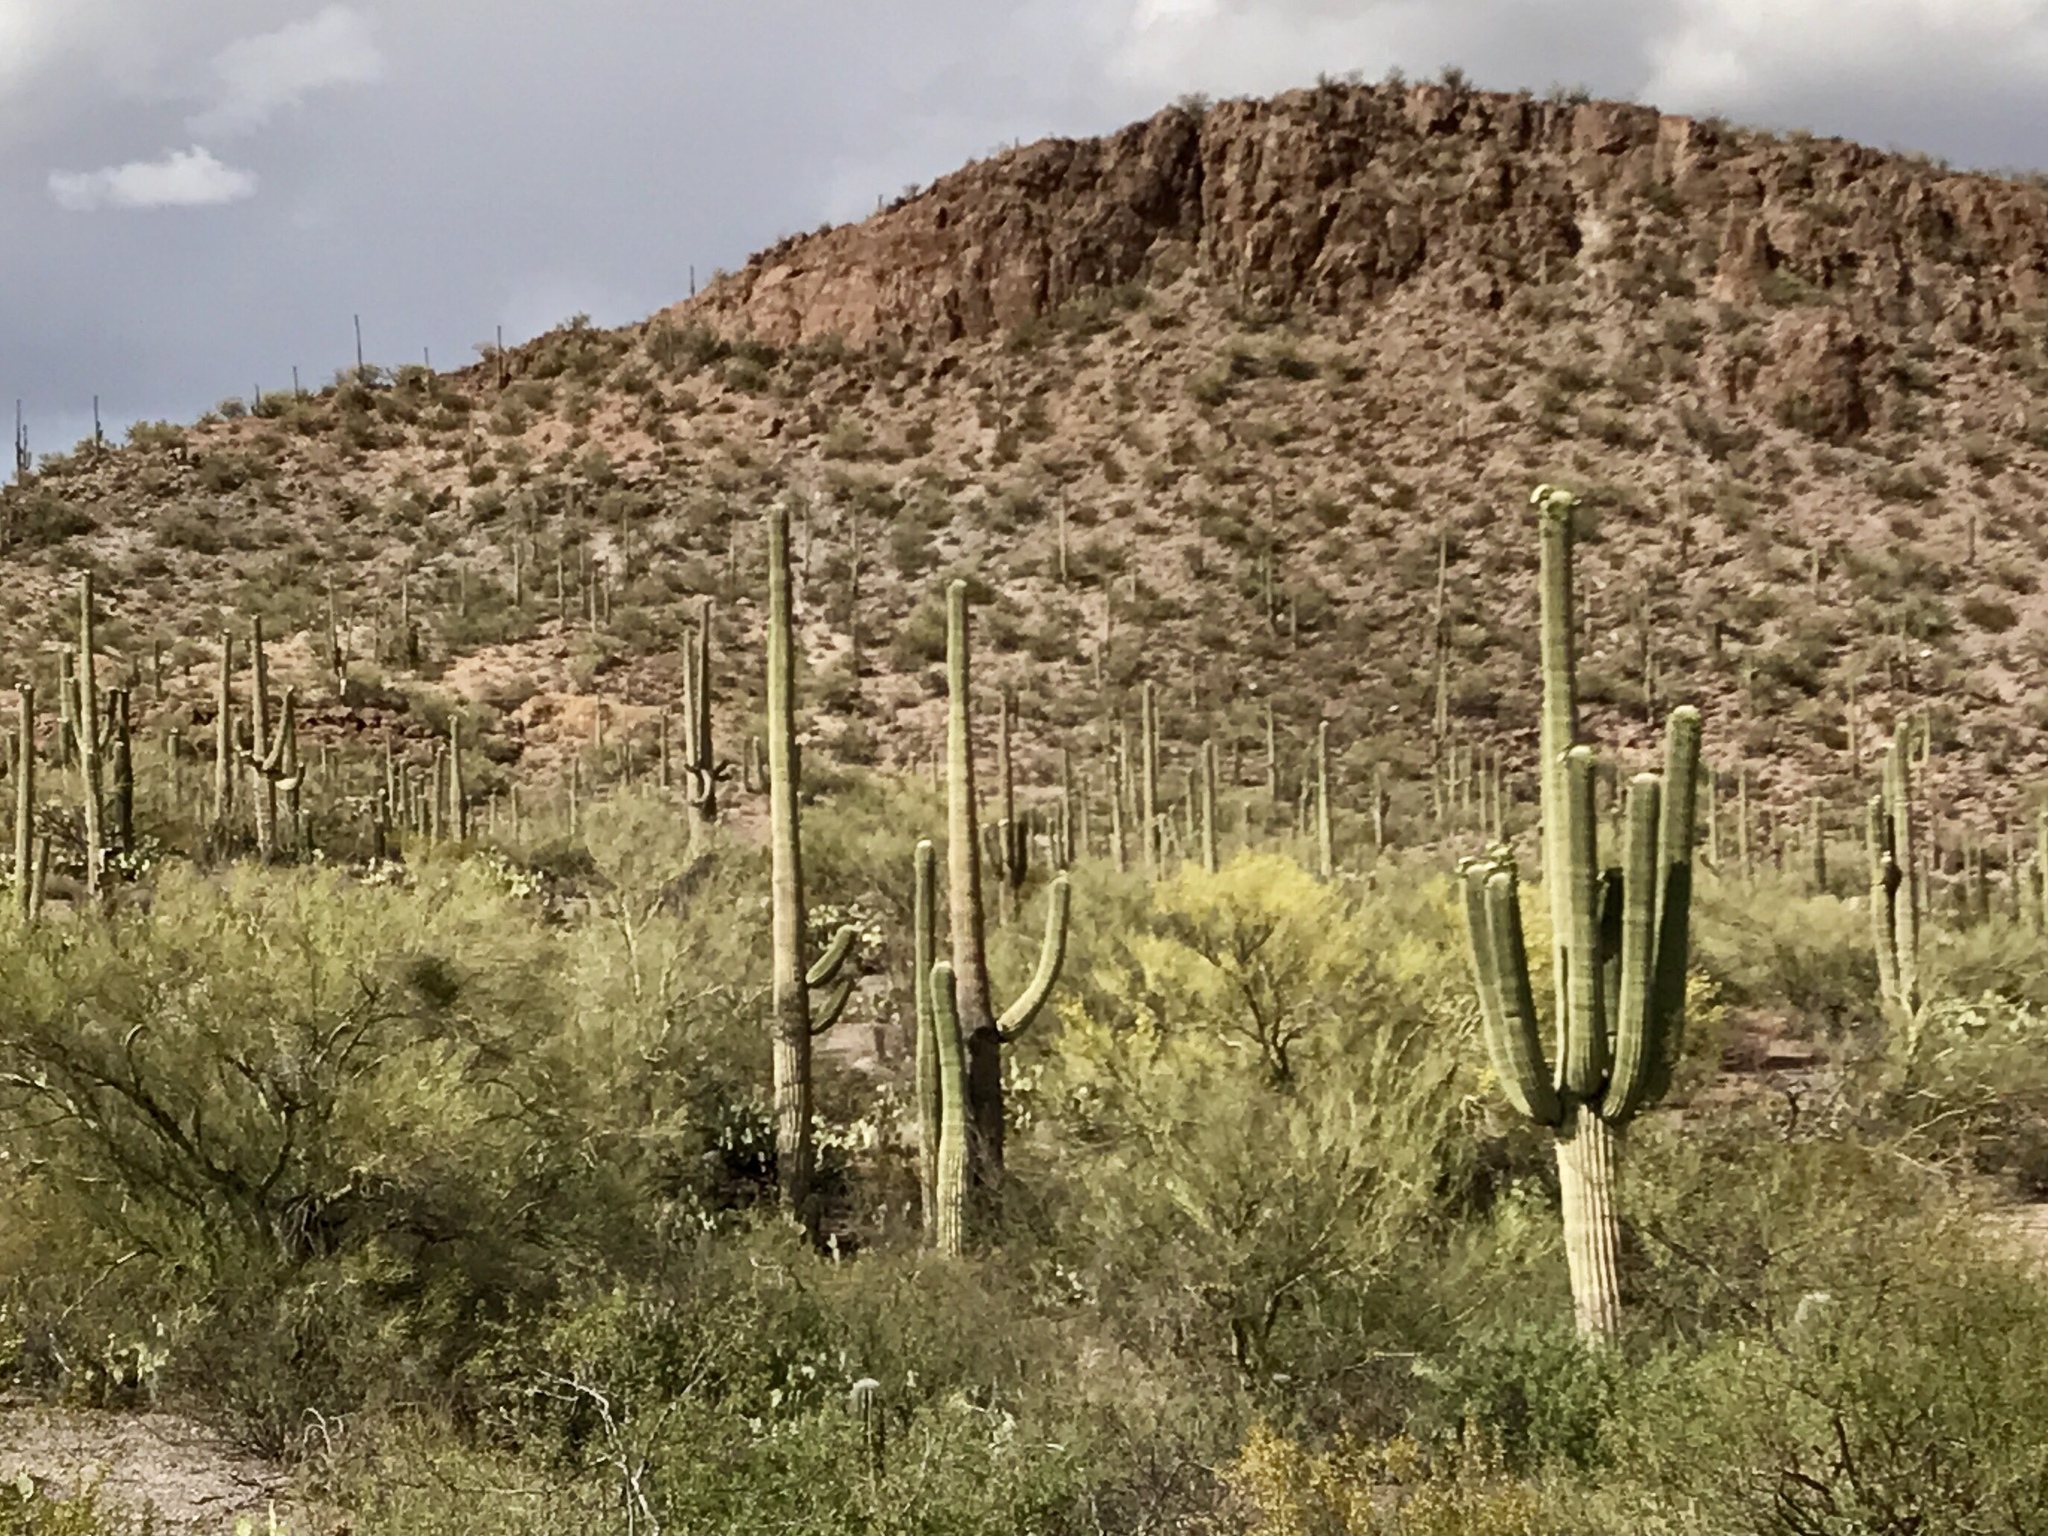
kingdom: Plantae
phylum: Tracheophyta
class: Magnoliopsida
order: Caryophyllales
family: Cactaceae
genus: Carnegiea
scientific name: Carnegiea gigantea
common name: Saguaro
